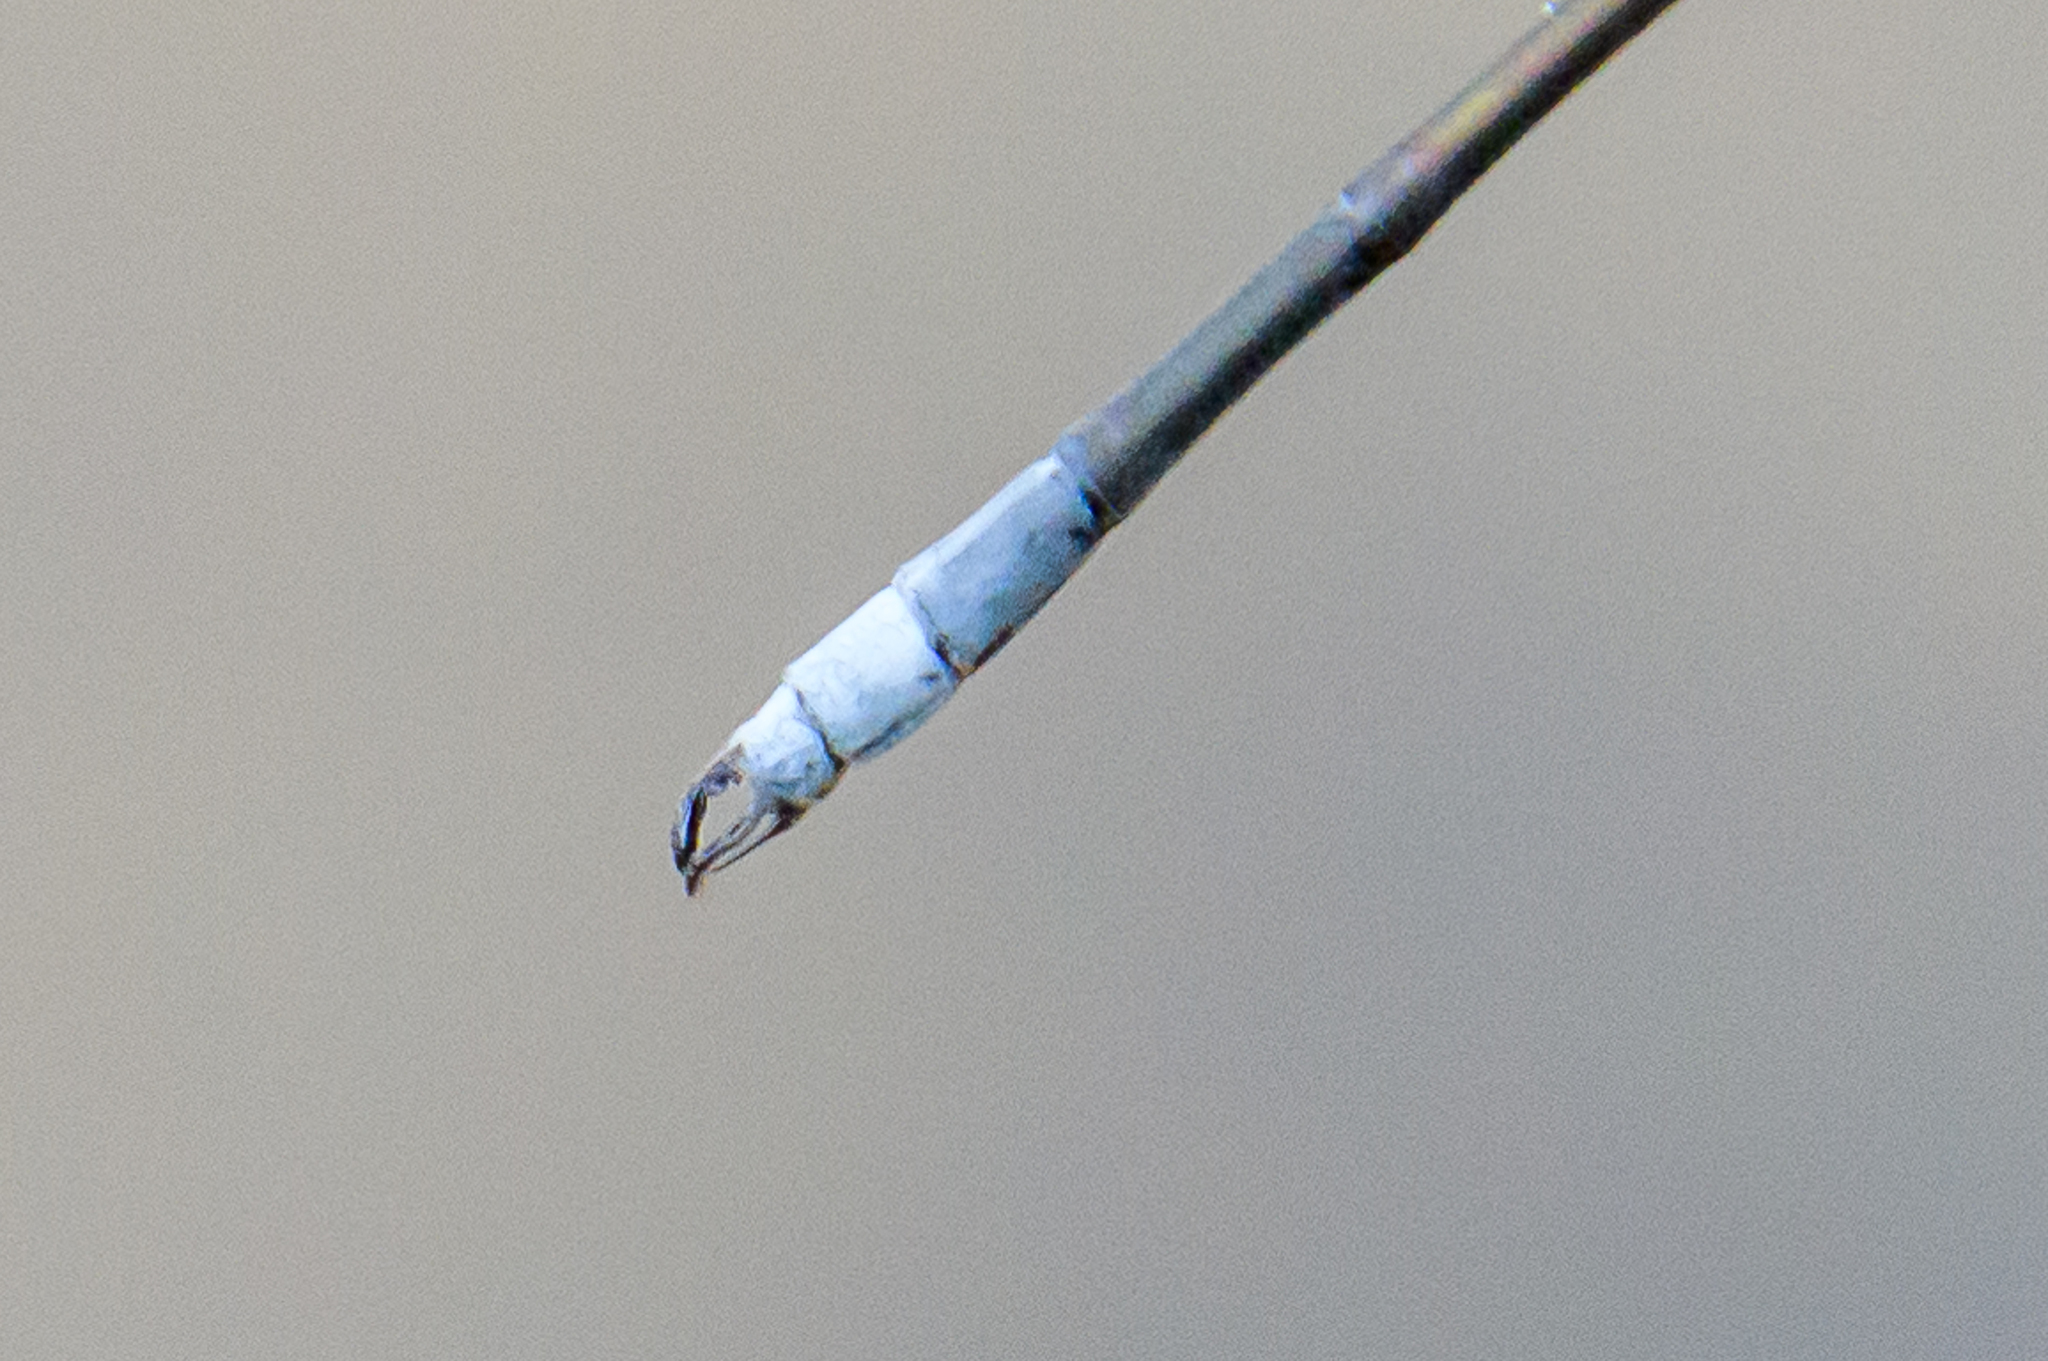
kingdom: Animalia
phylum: Arthropoda
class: Insecta
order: Odonata
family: Lestidae
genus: Lestes
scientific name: Lestes vigilax
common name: Swamp spreadwing
